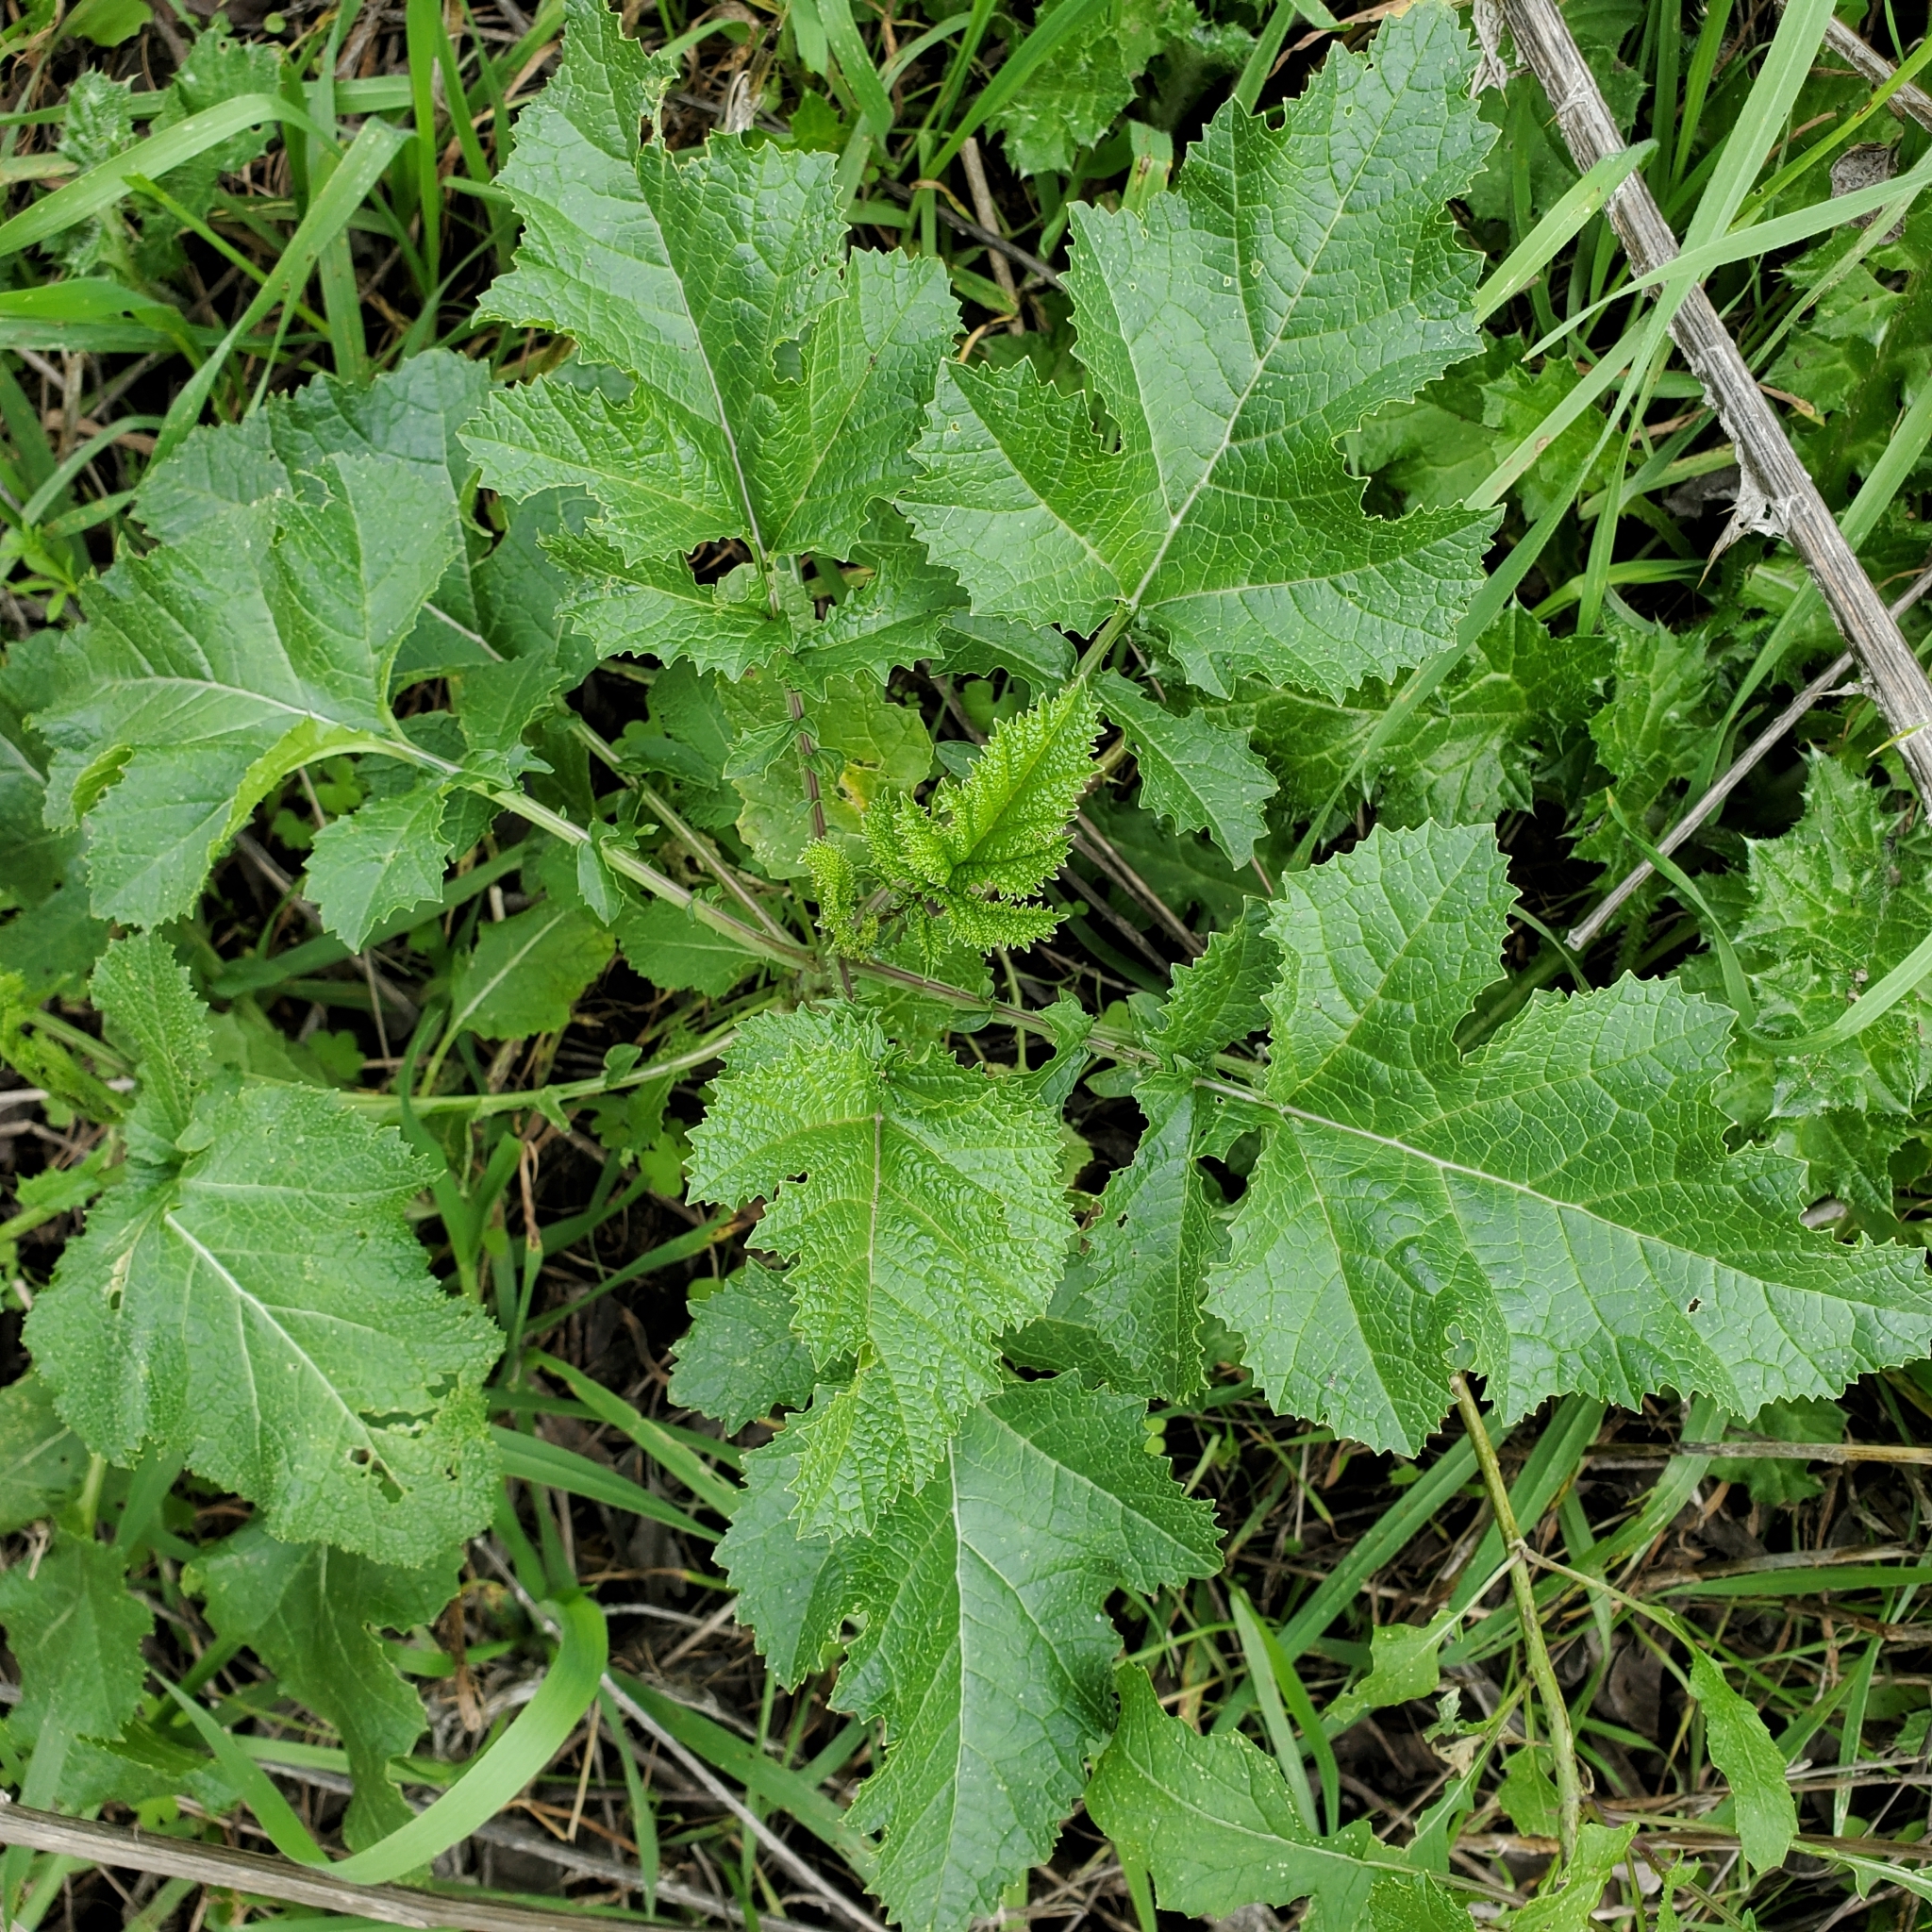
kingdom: Plantae
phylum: Tracheophyta
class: Magnoliopsida
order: Brassicales
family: Brassicaceae
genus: Brassica
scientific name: Brassica nigra
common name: Black mustard
